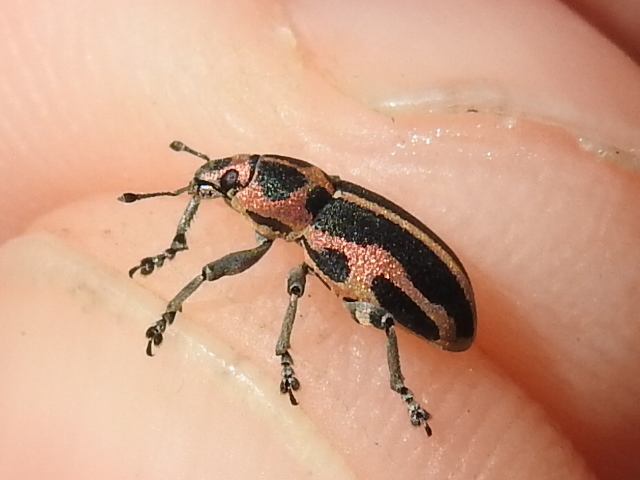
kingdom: Animalia
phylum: Arthropoda
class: Insecta
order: Coleoptera
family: Curculionidae
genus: Eudiagogus
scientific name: Eudiagogus pulcher
